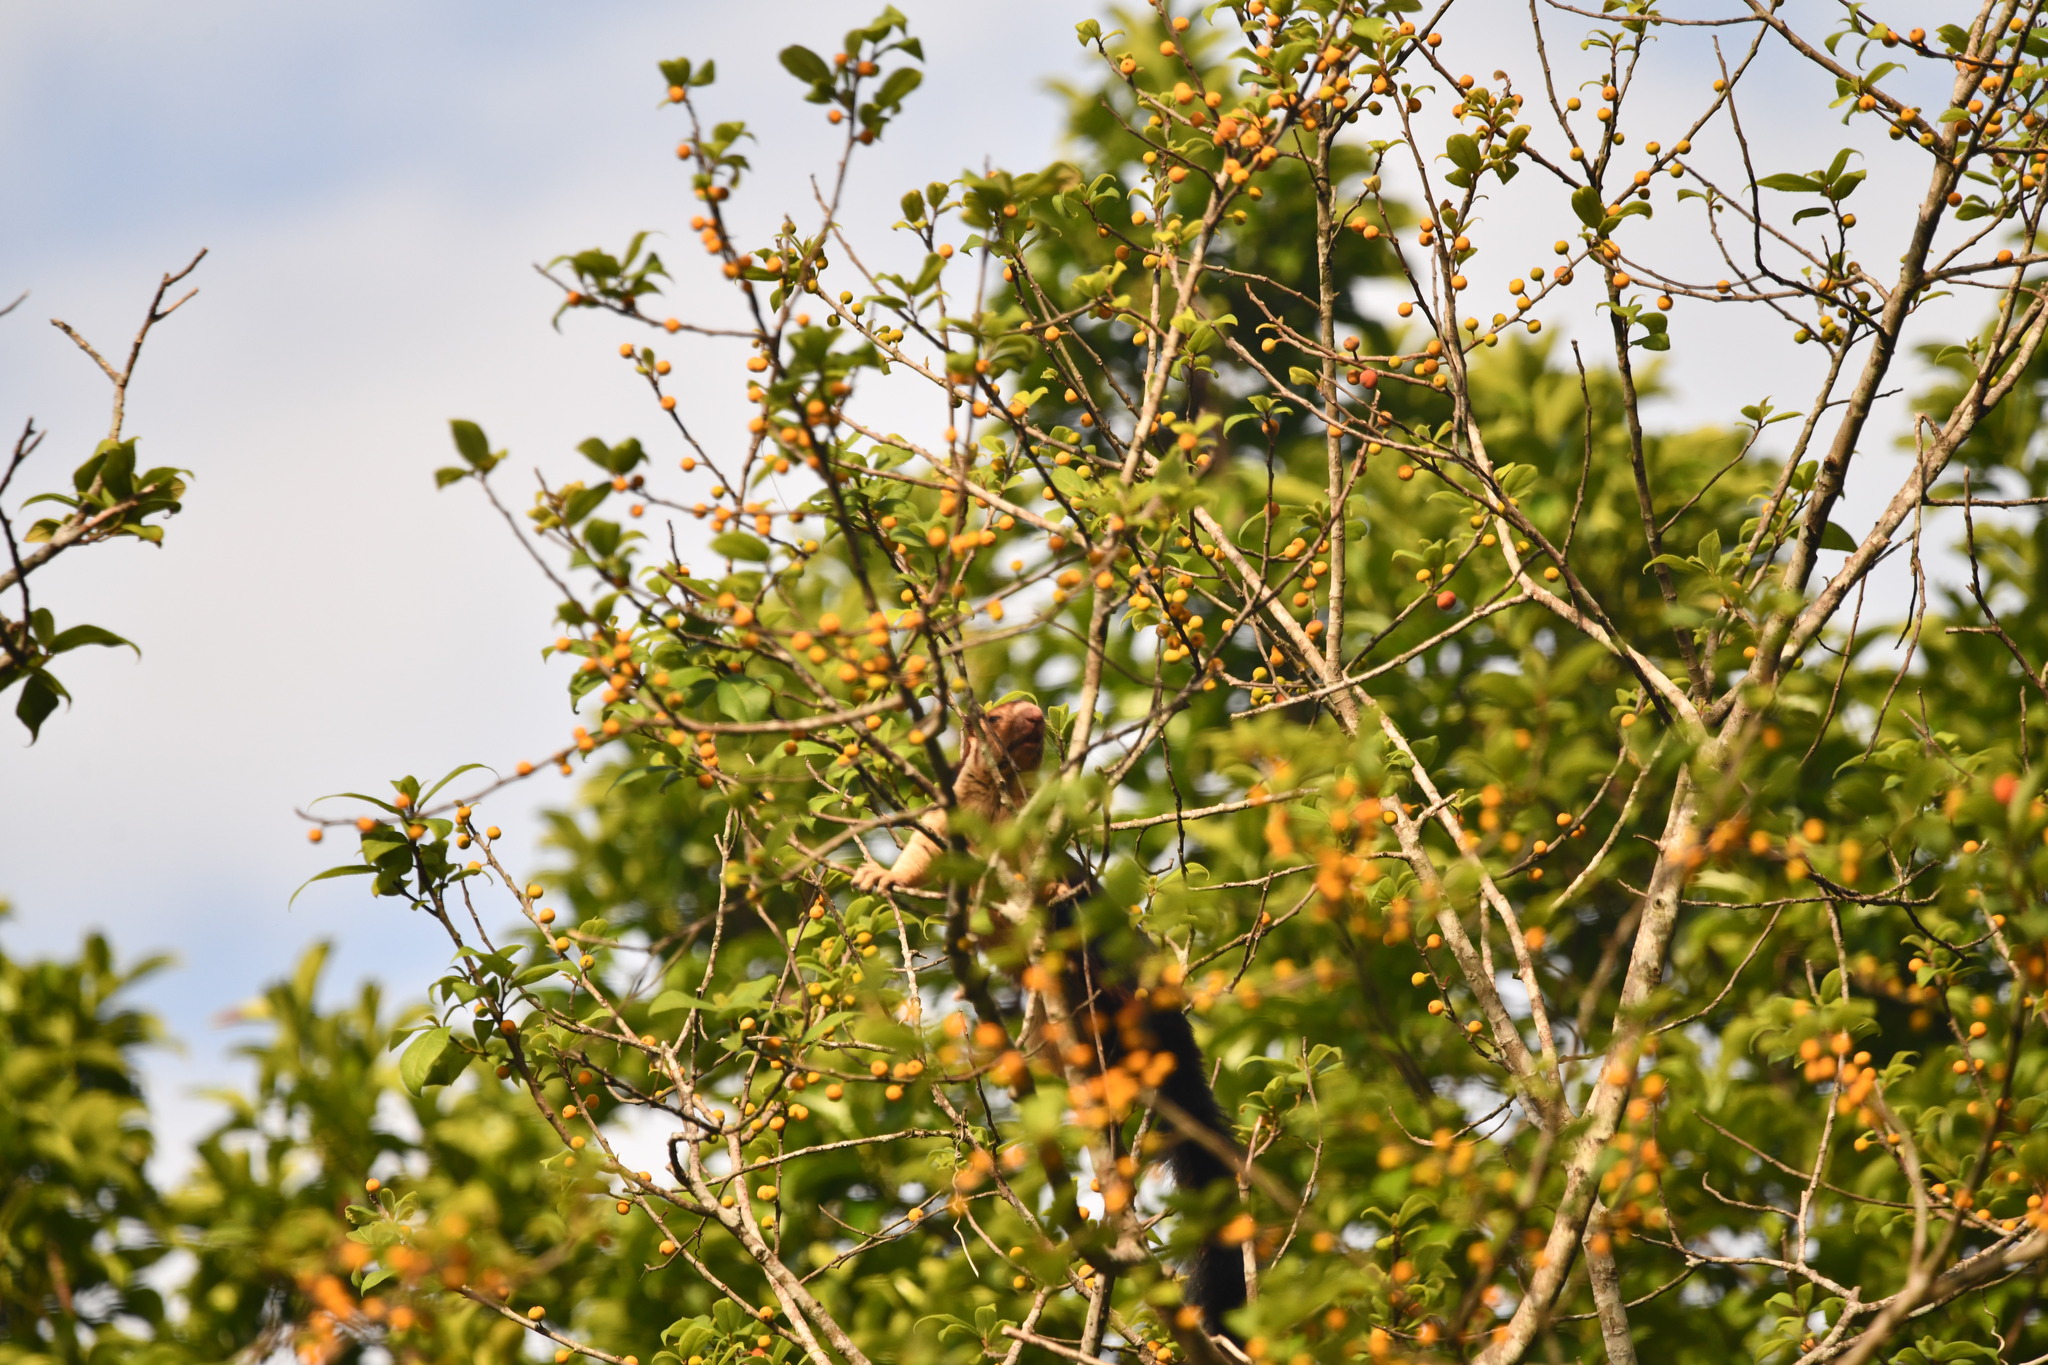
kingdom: Animalia
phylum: Chordata
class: Mammalia
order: Rodentia
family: Sciuridae
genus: Ratufa
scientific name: Ratufa indica
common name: Indian giant squirrel
